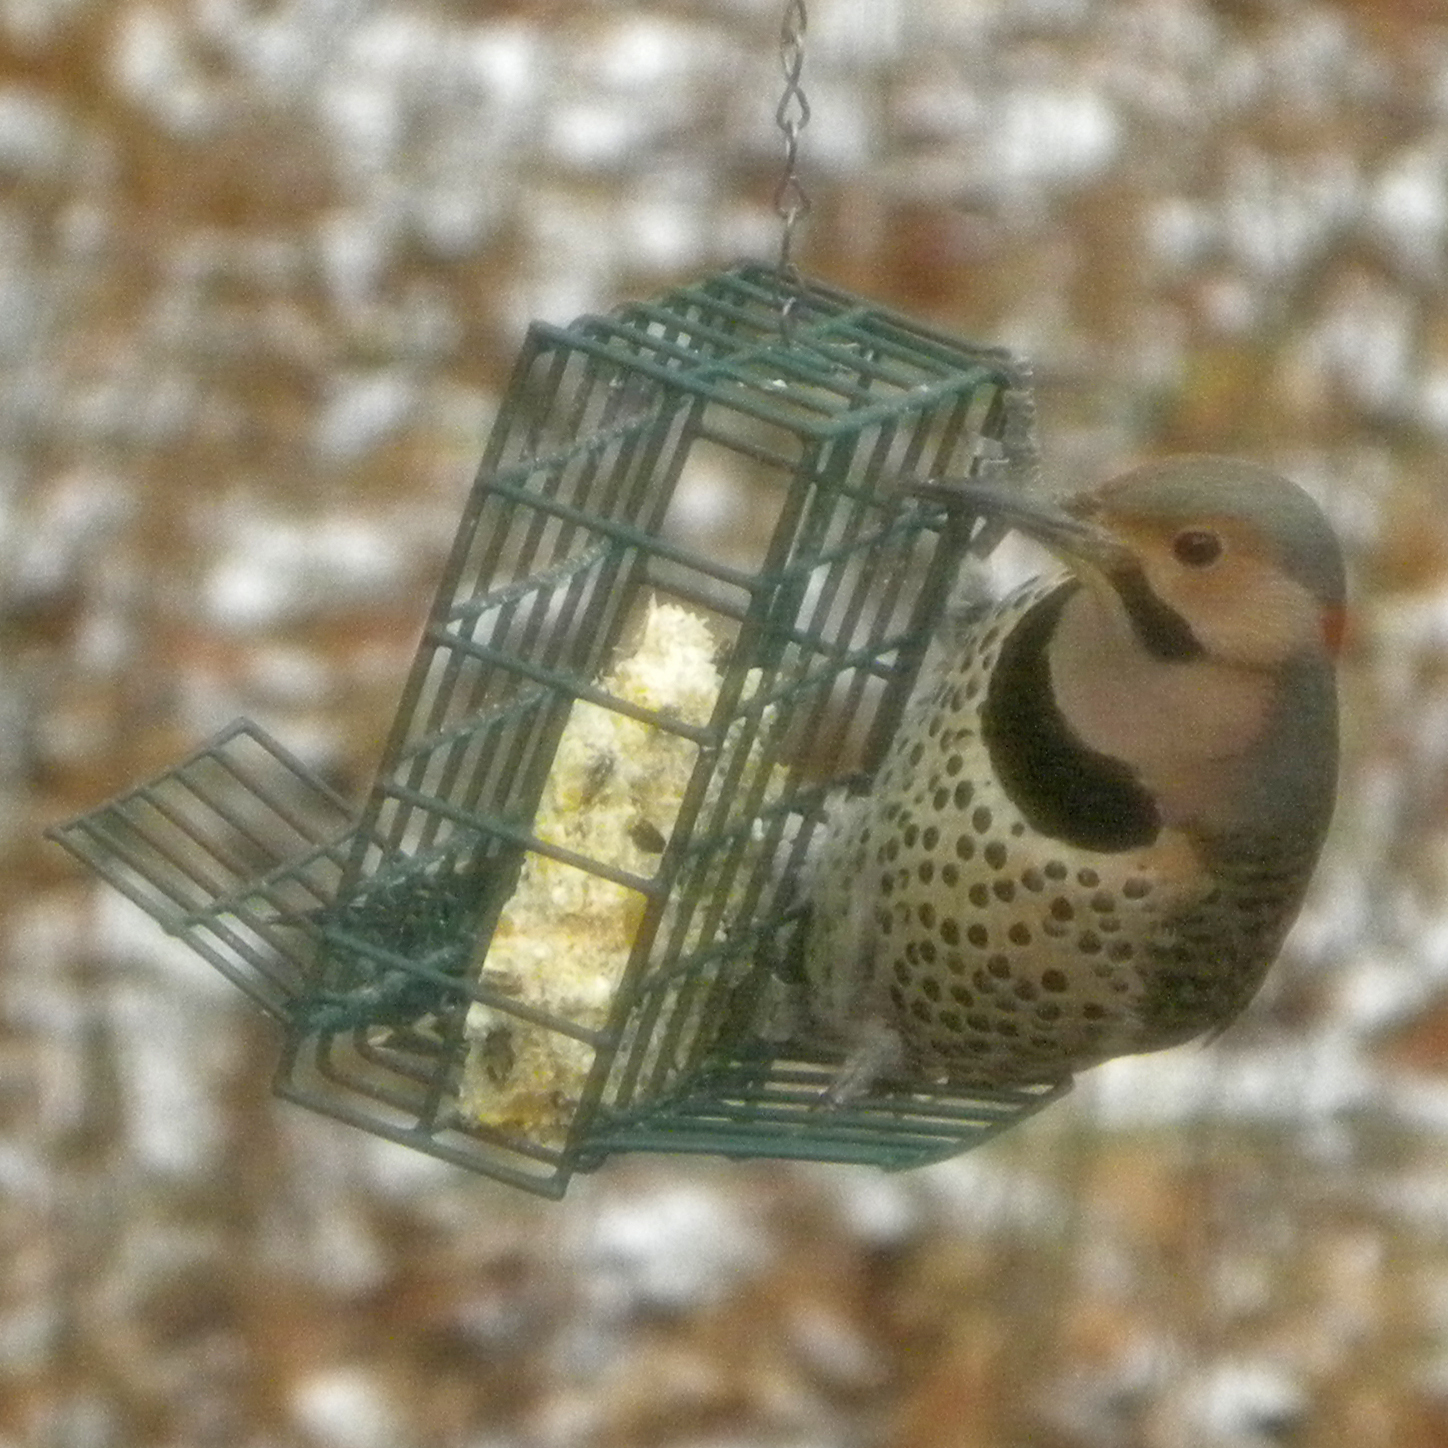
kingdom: Animalia
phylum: Chordata
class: Aves
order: Piciformes
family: Picidae
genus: Colaptes
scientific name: Colaptes auratus
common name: Northern flicker
